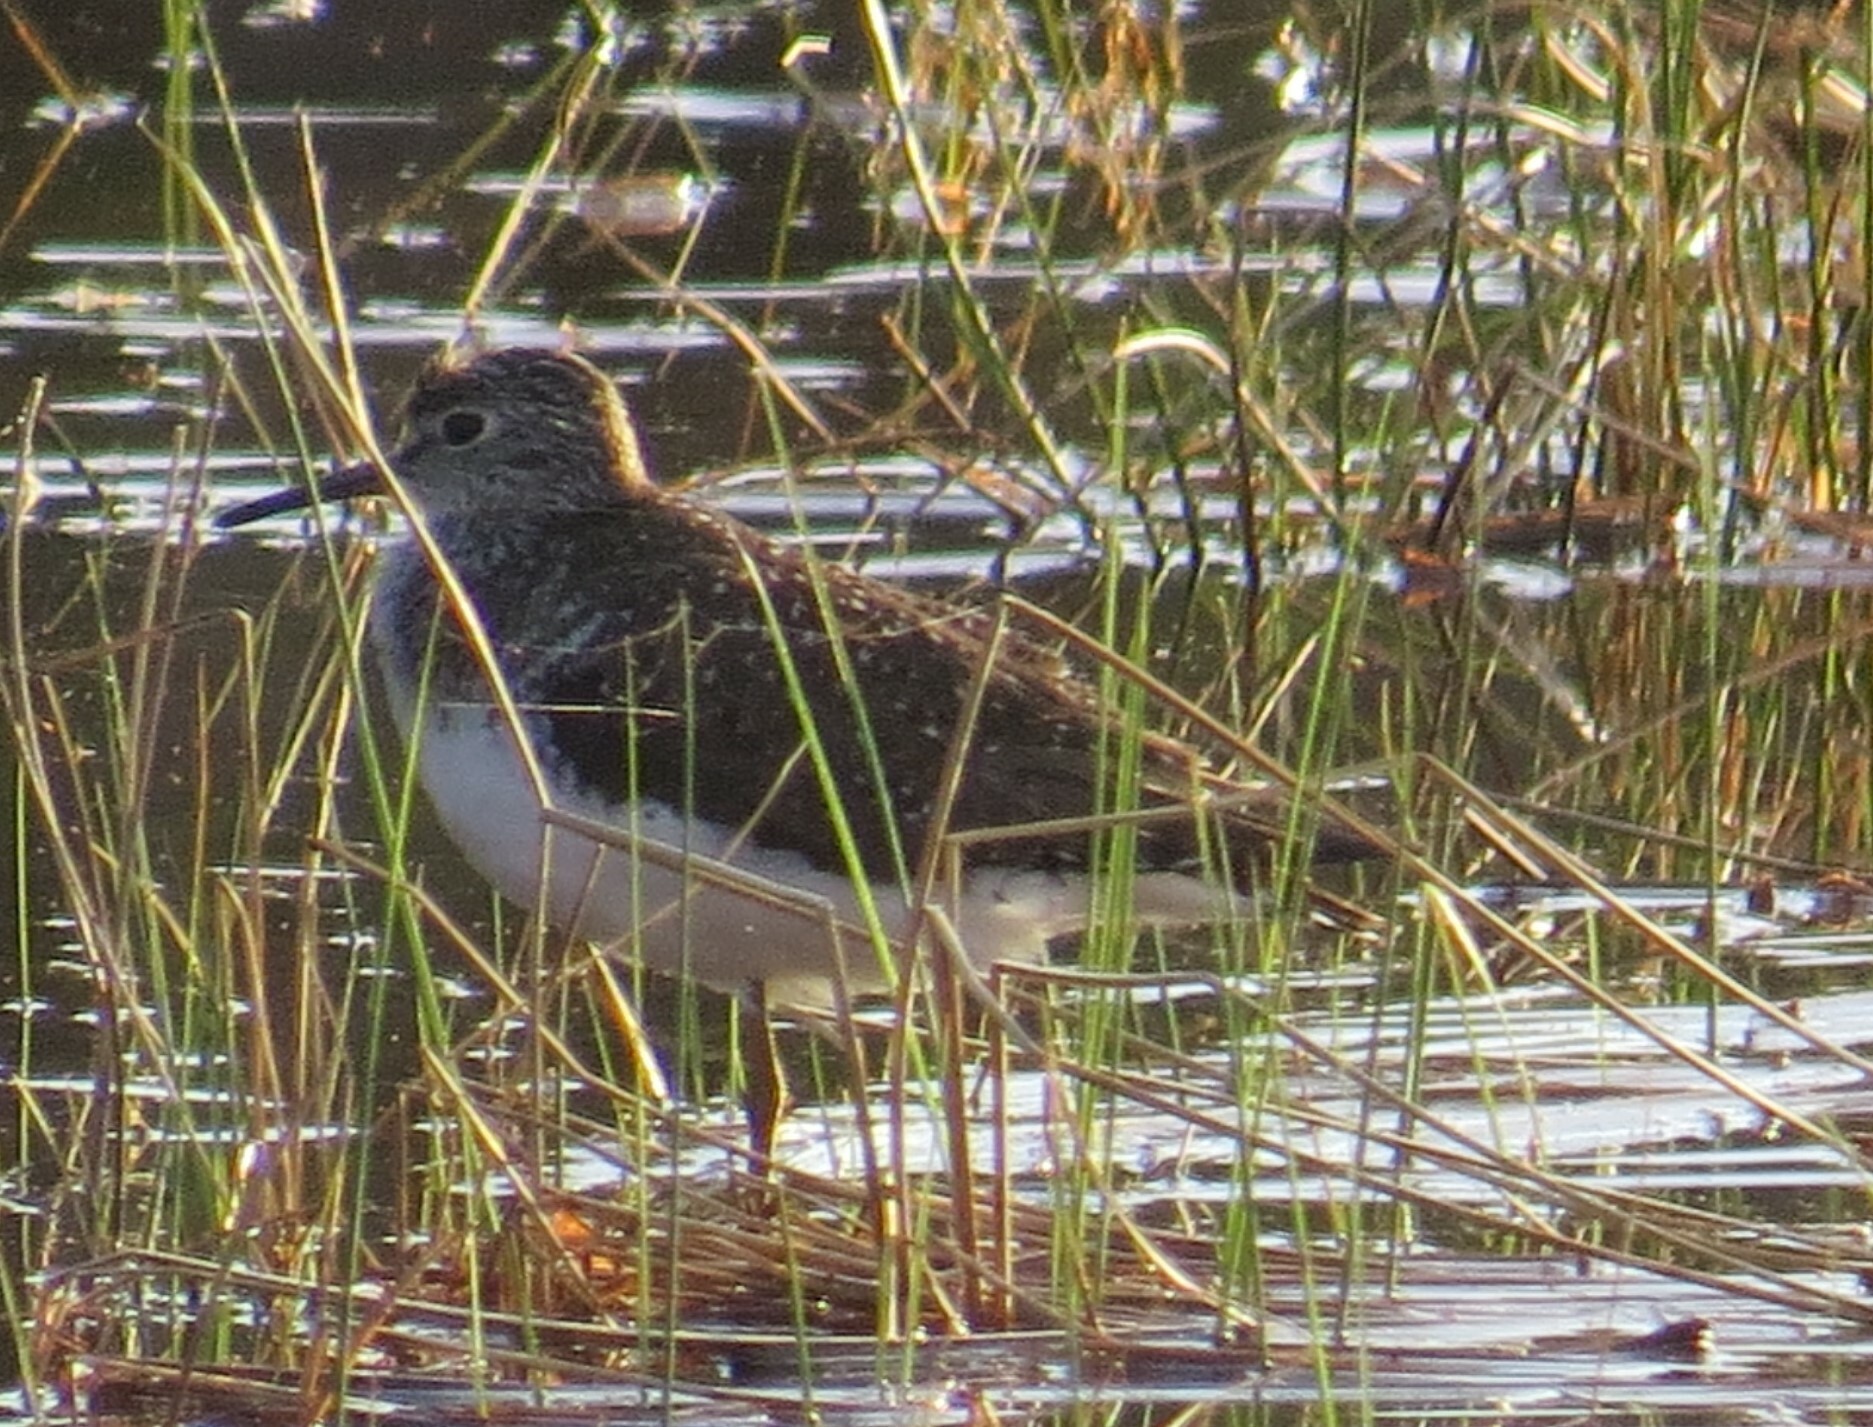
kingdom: Animalia
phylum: Chordata
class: Aves
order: Charadriiformes
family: Scolopacidae
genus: Tringa
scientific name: Tringa solitaria
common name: Solitary sandpiper
